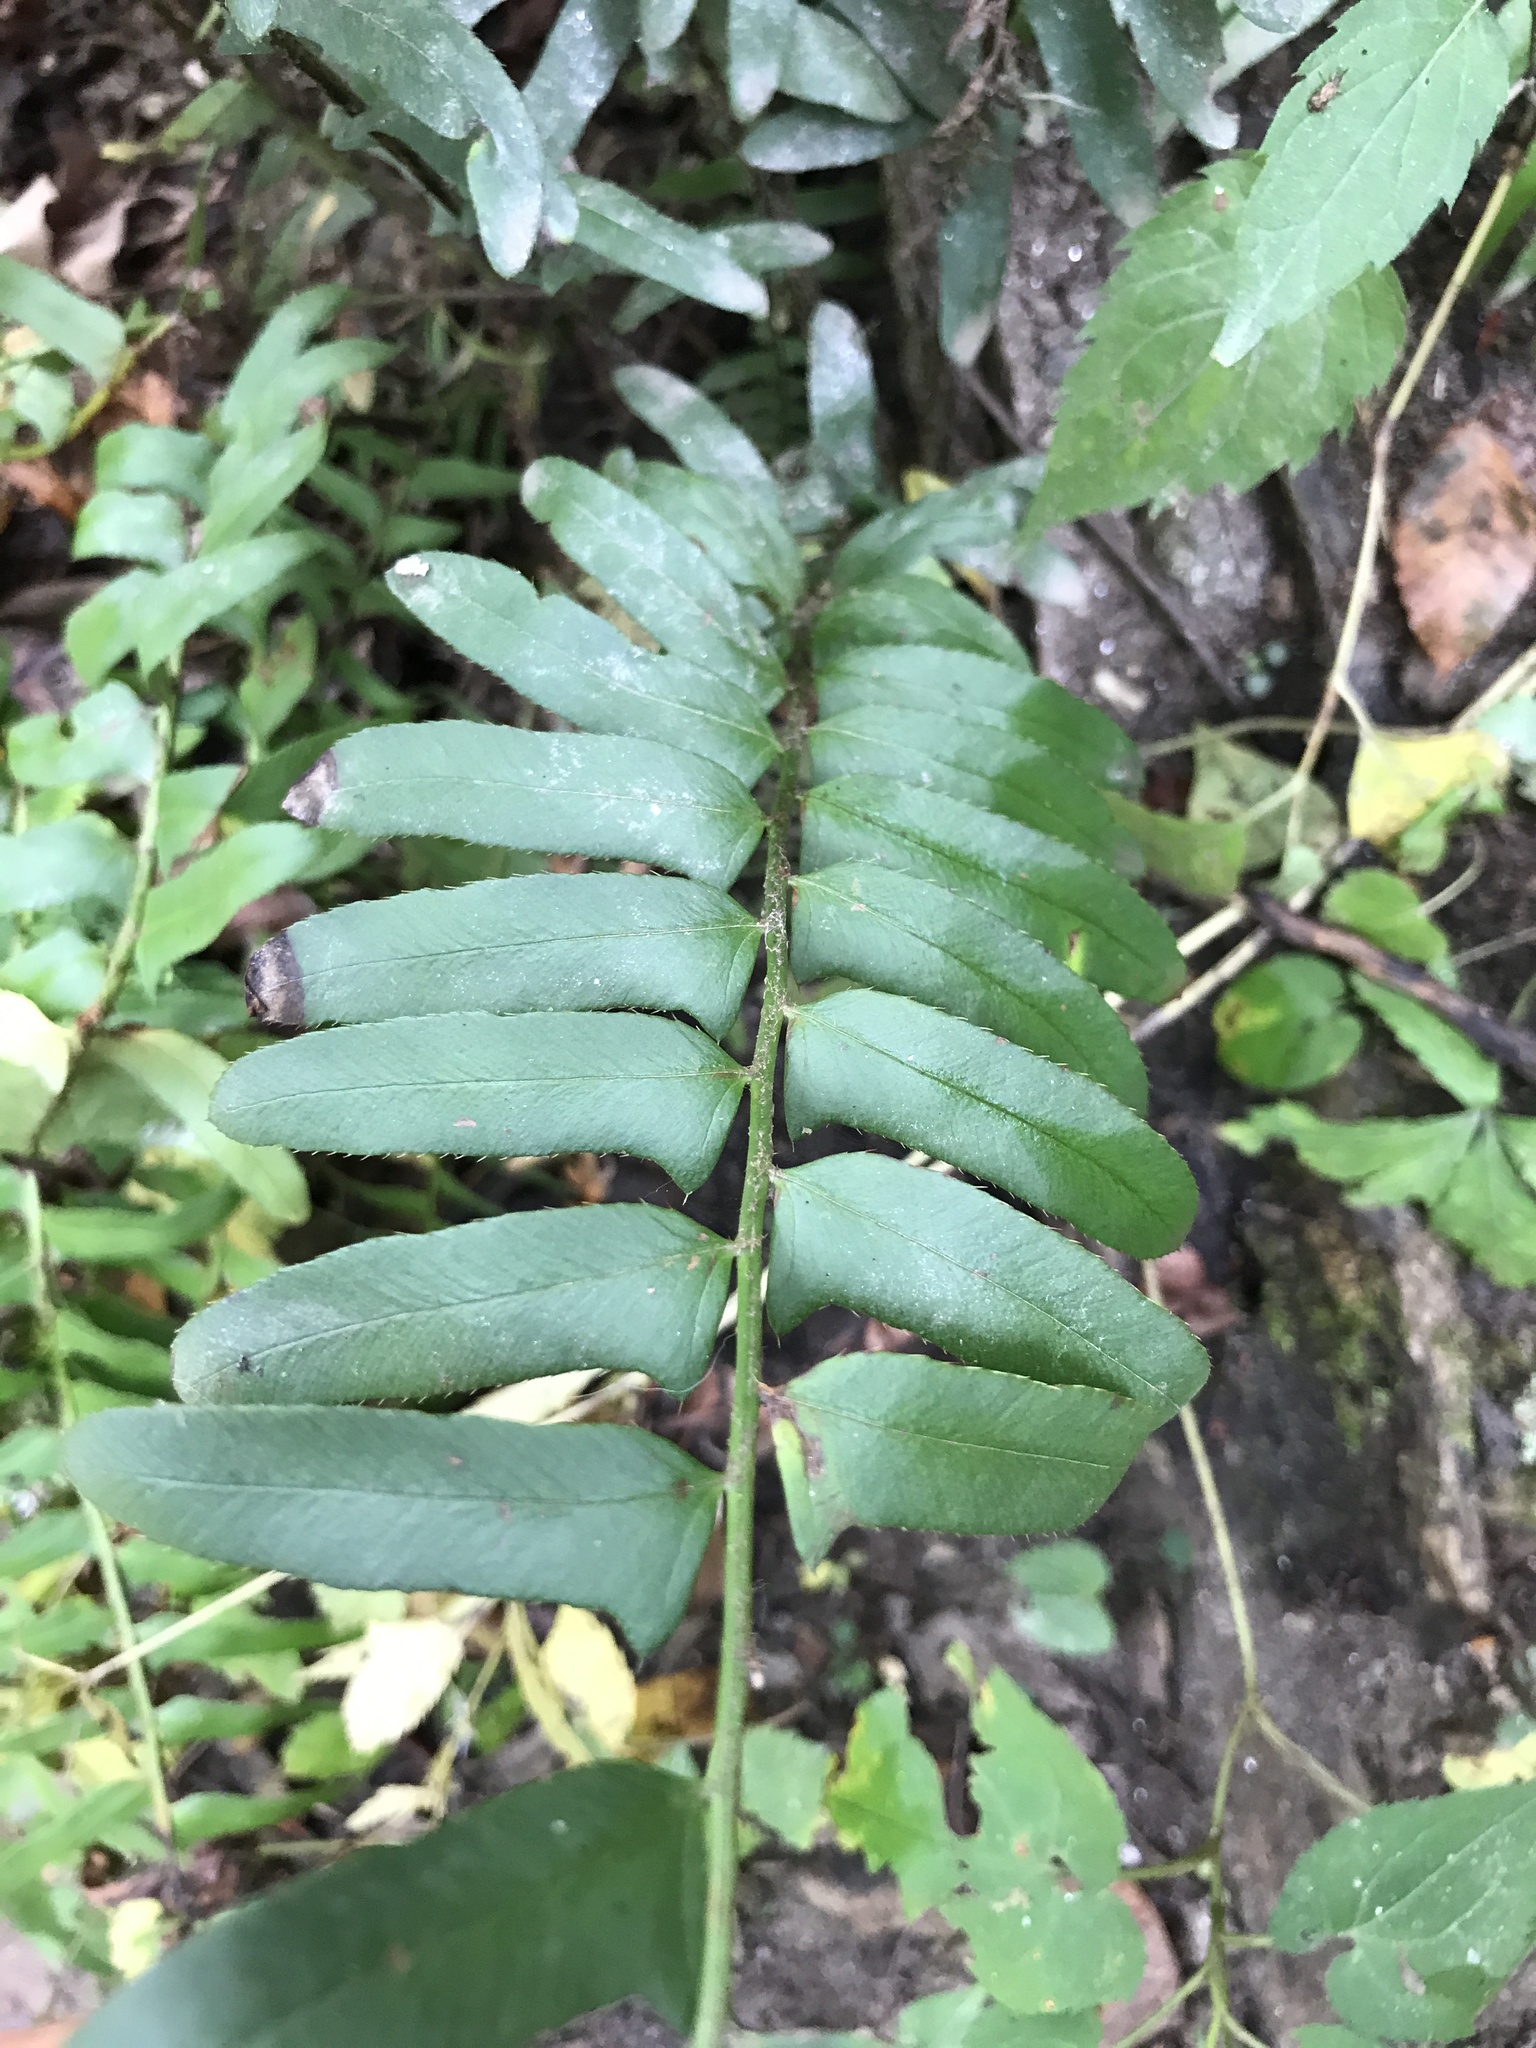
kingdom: Plantae
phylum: Tracheophyta
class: Polypodiopsida
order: Polypodiales
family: Dryopteridaceae
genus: Polystichum
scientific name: Polystichum acrostichoides
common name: Christmas fern
